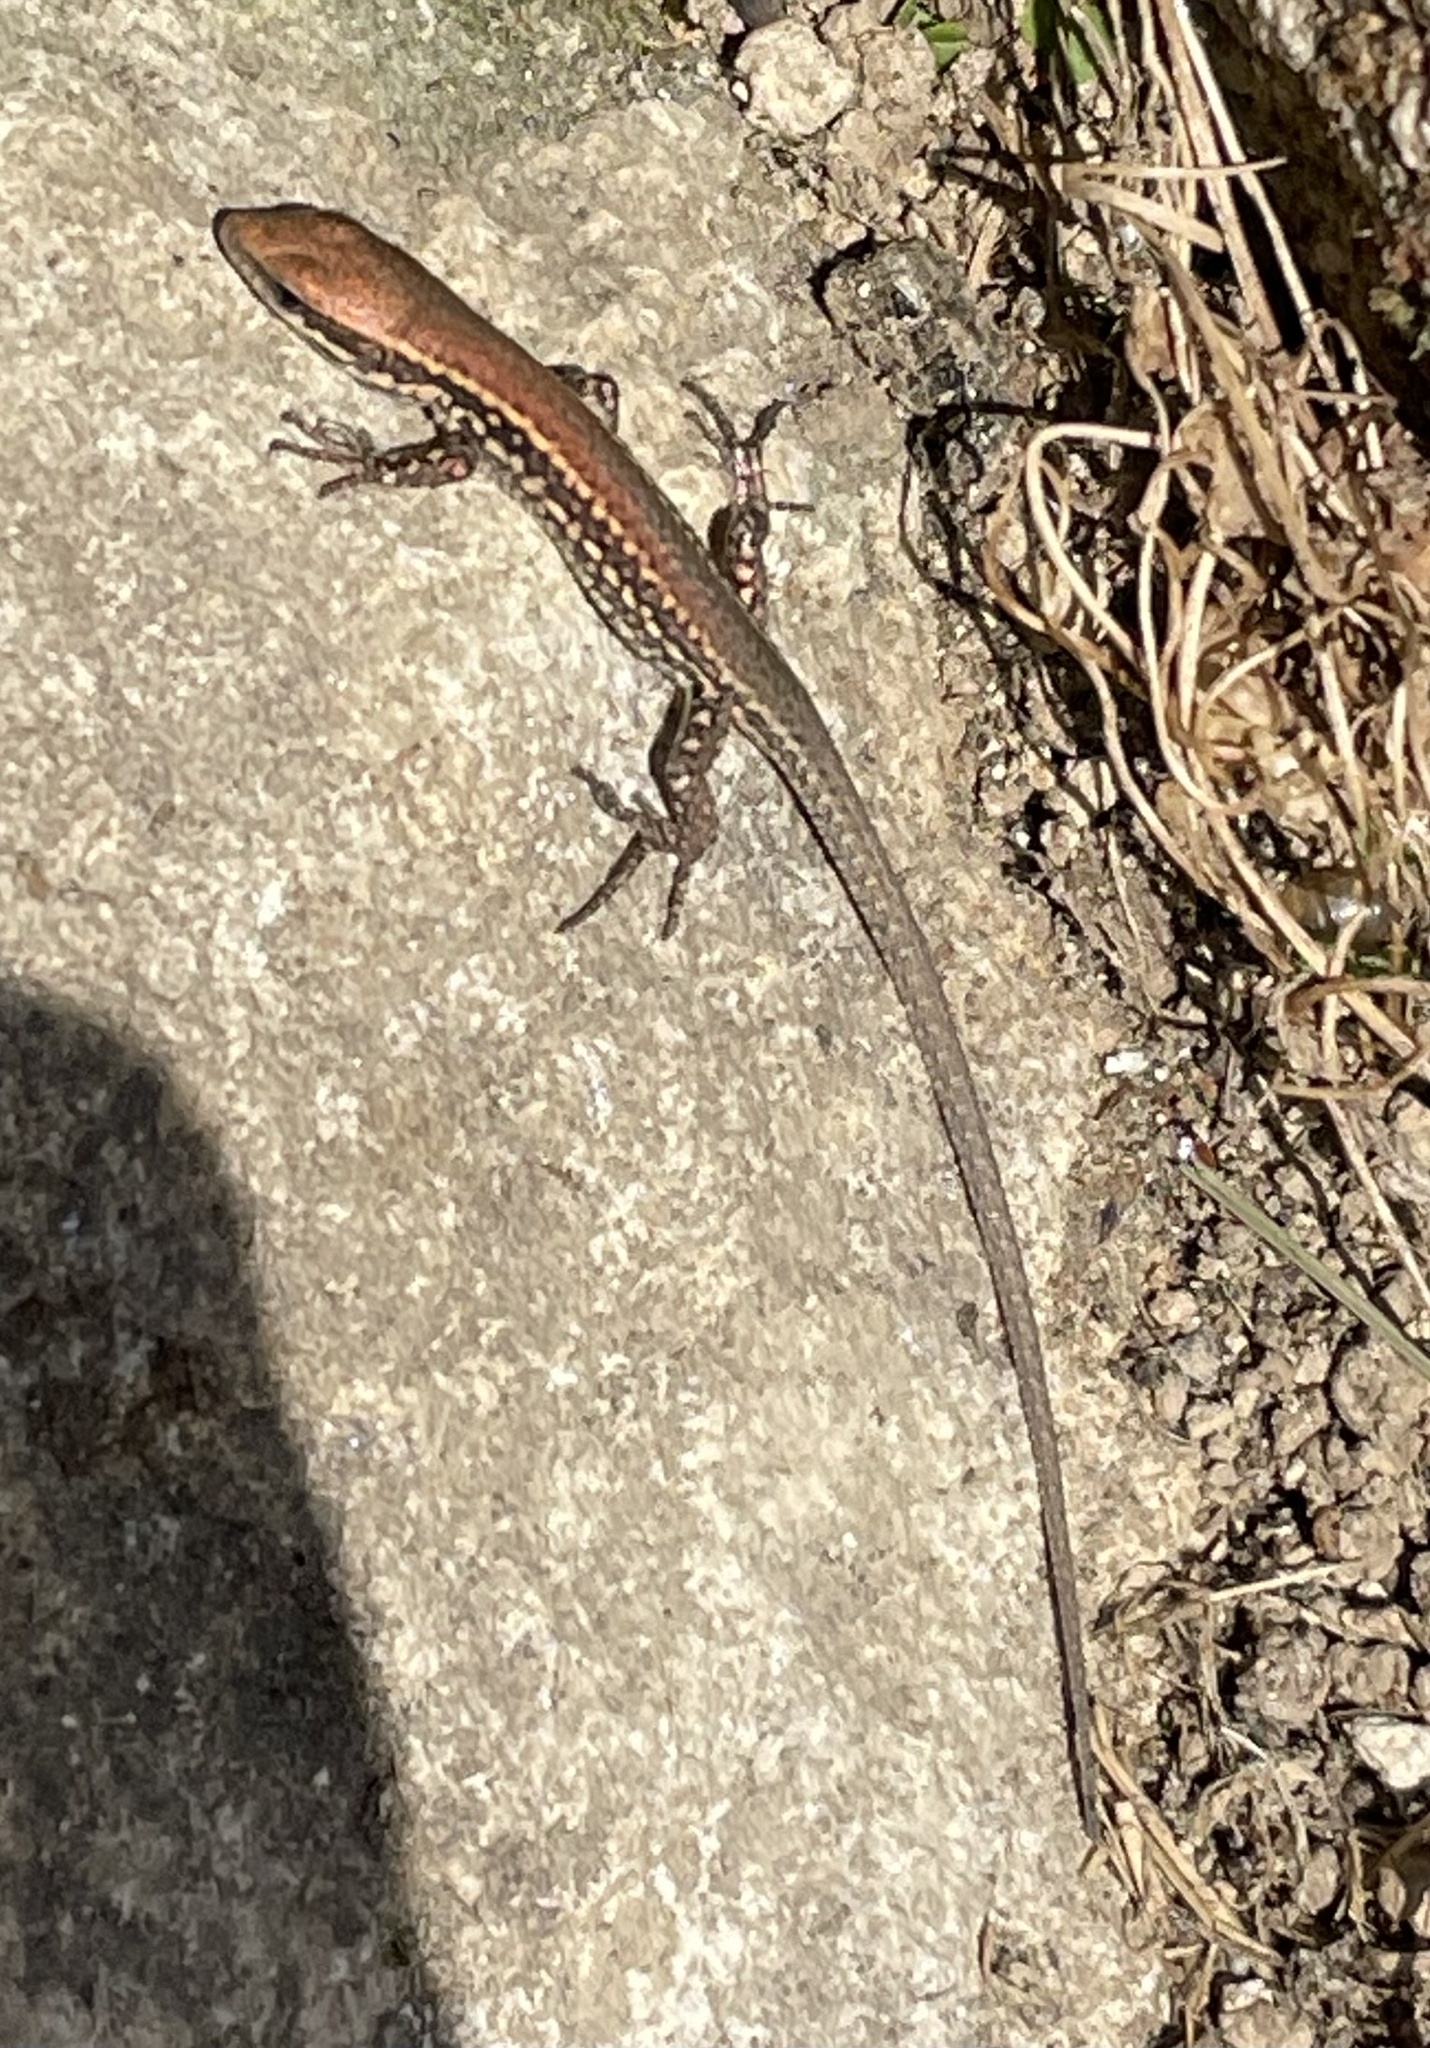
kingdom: Animalia
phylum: Chordata
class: Squamata
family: Lacertidae
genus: Podarcis
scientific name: Podarcis muralis
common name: Common wall lizard
